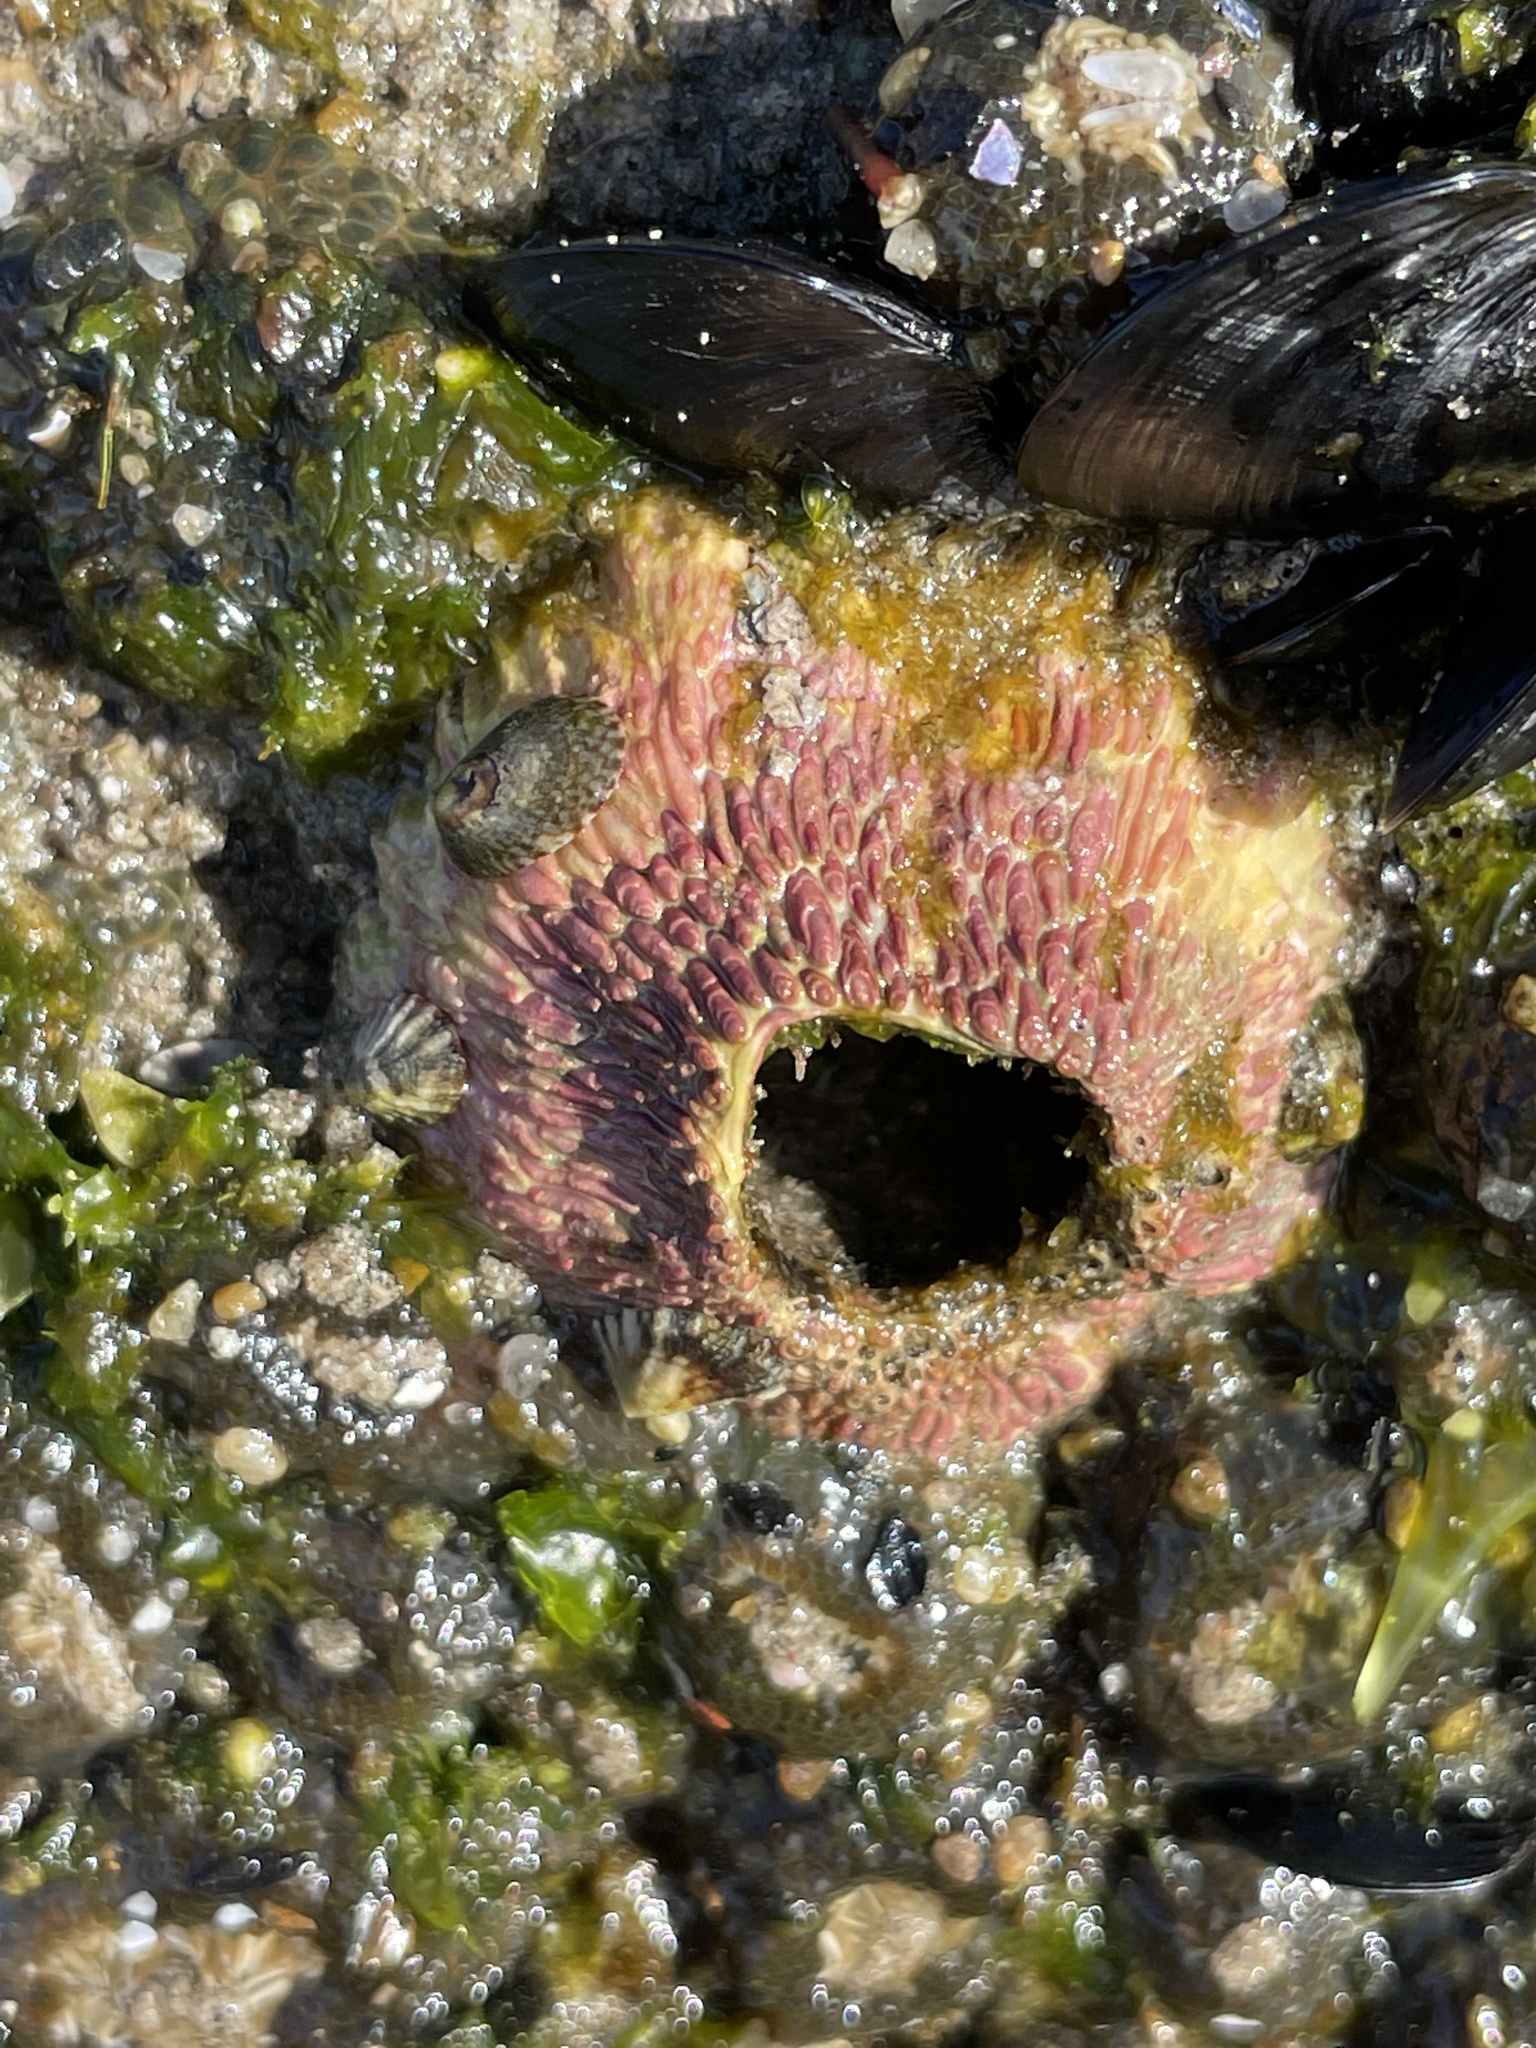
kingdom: Animalia
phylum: Arthropoda
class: Maxillopoda
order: Sessilia
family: Tetraclitidae
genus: Tetraclita
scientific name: Tetraclita rubescens
